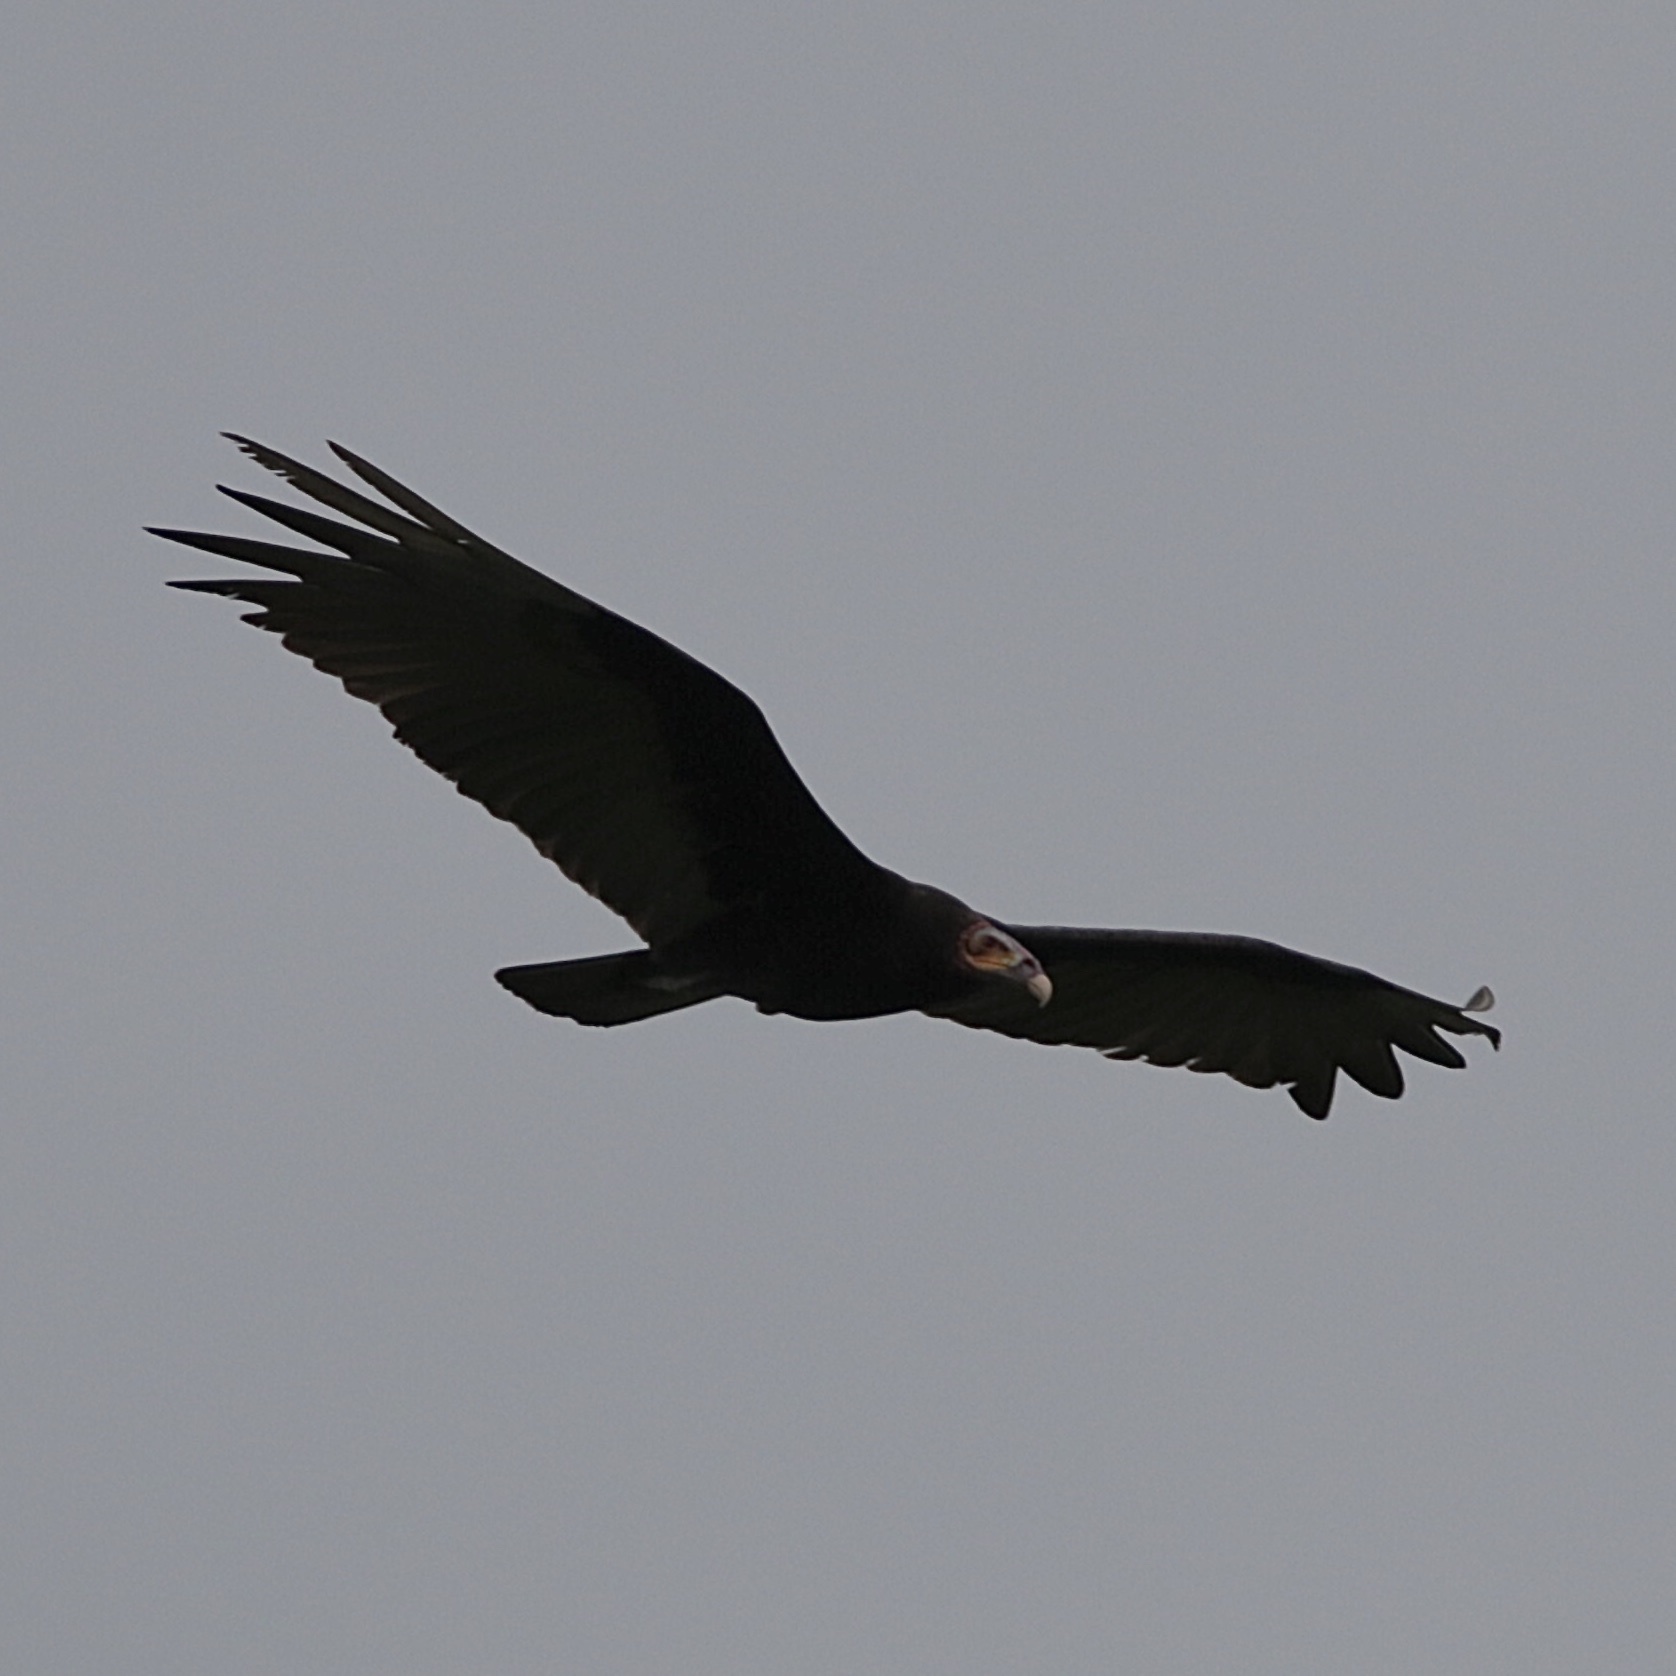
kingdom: Animalia
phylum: Chordata
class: Aves
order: Accipitriformes
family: Cathartidae
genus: Cathartes
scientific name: Cathartes burrovianus
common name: Lesser yellow-headed vulture
